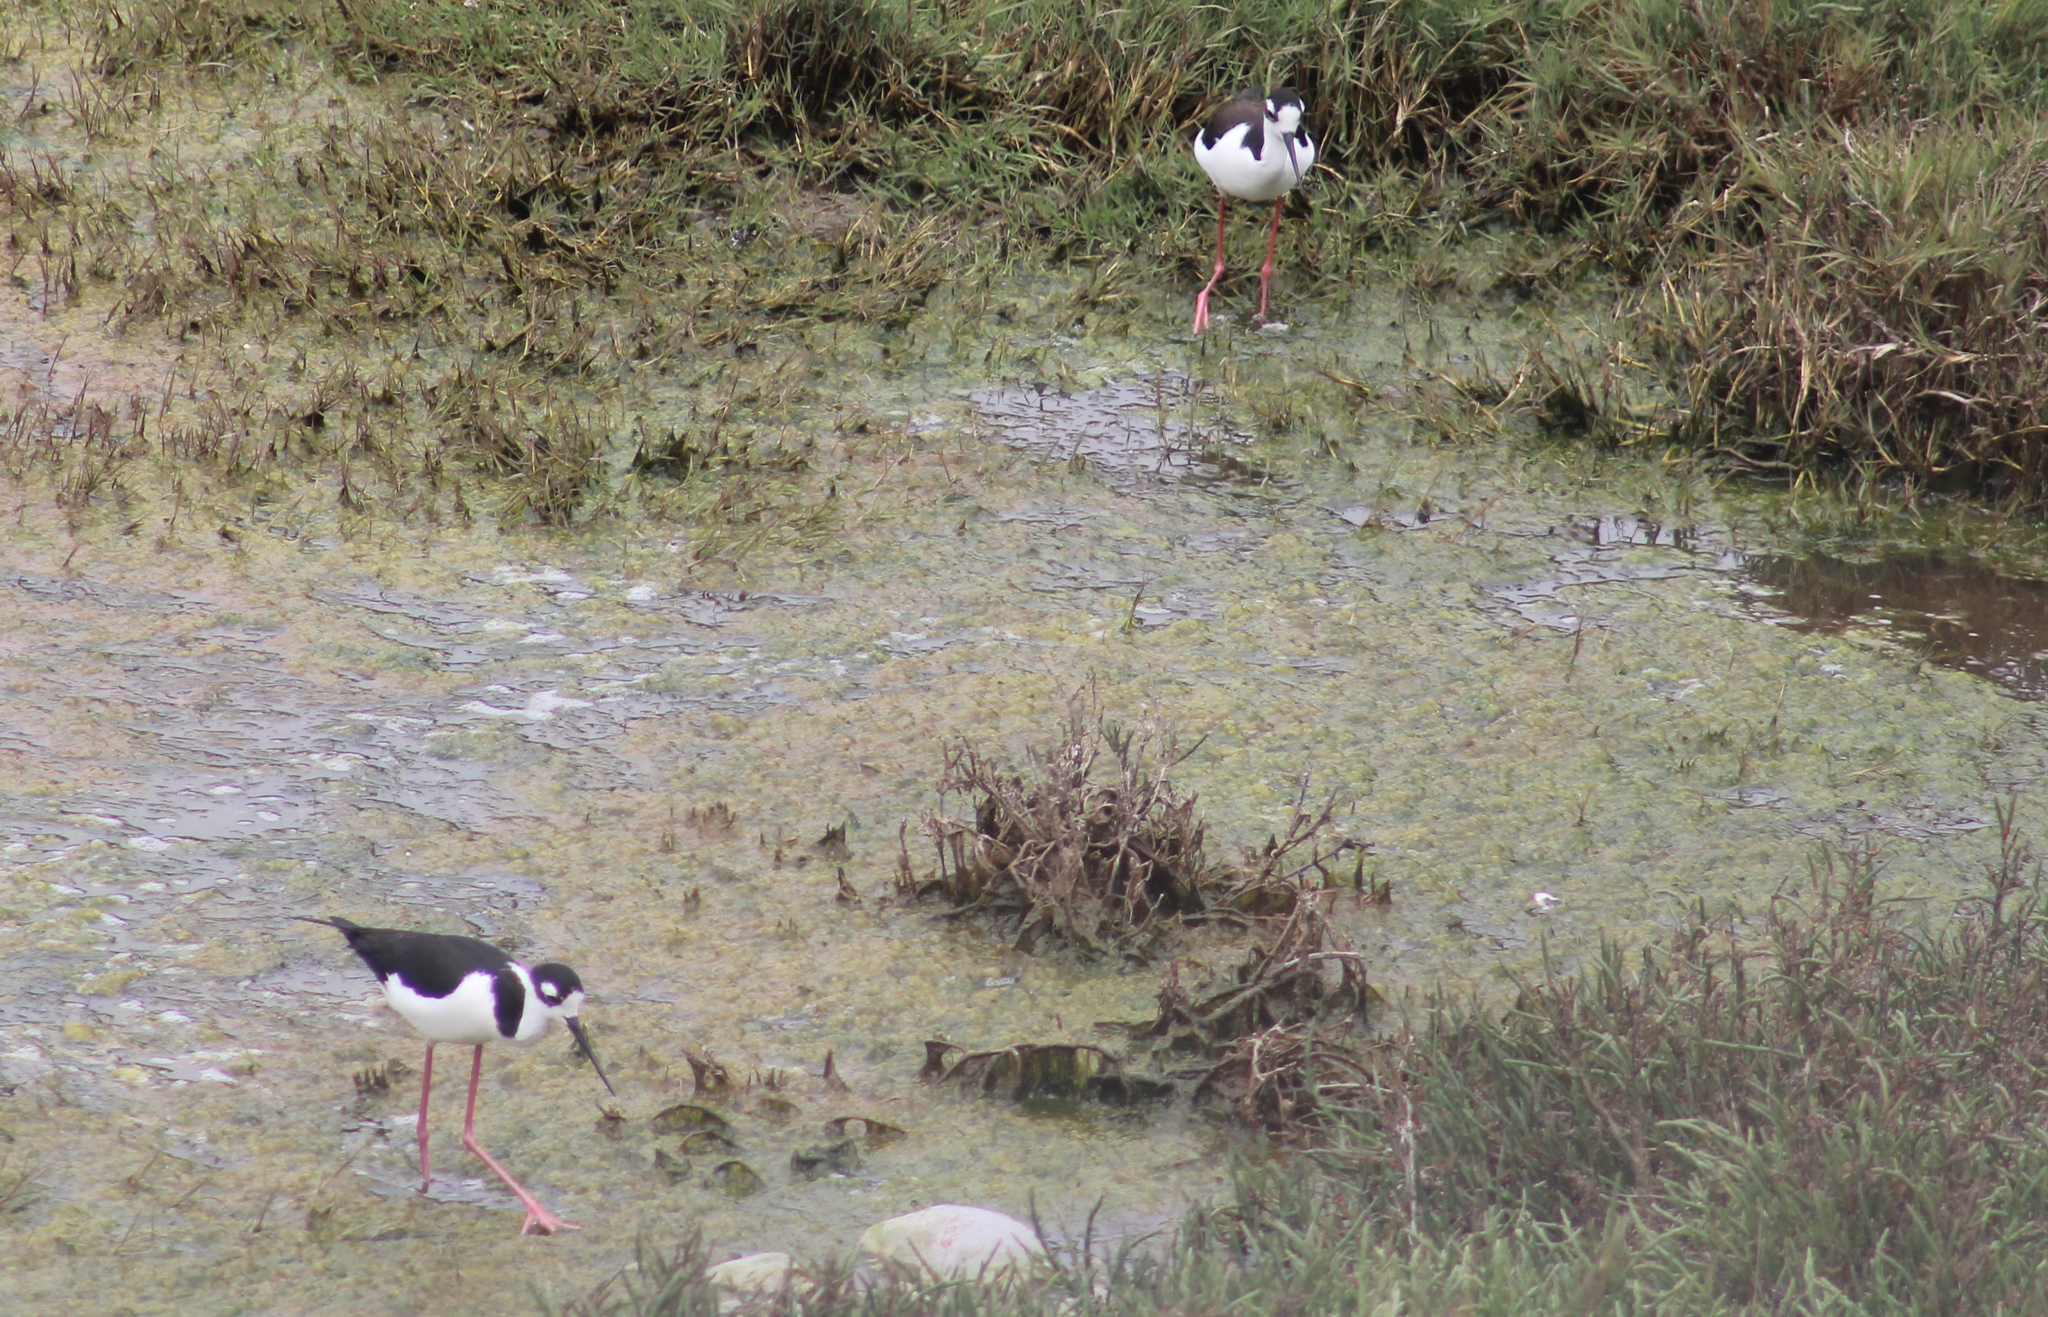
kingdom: Animalia
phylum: Chordata
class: Aves
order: Charadriiformes
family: Recurvirostridae
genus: Himantopus
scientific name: Himantopus mexicanus
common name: Black-necked stilt
